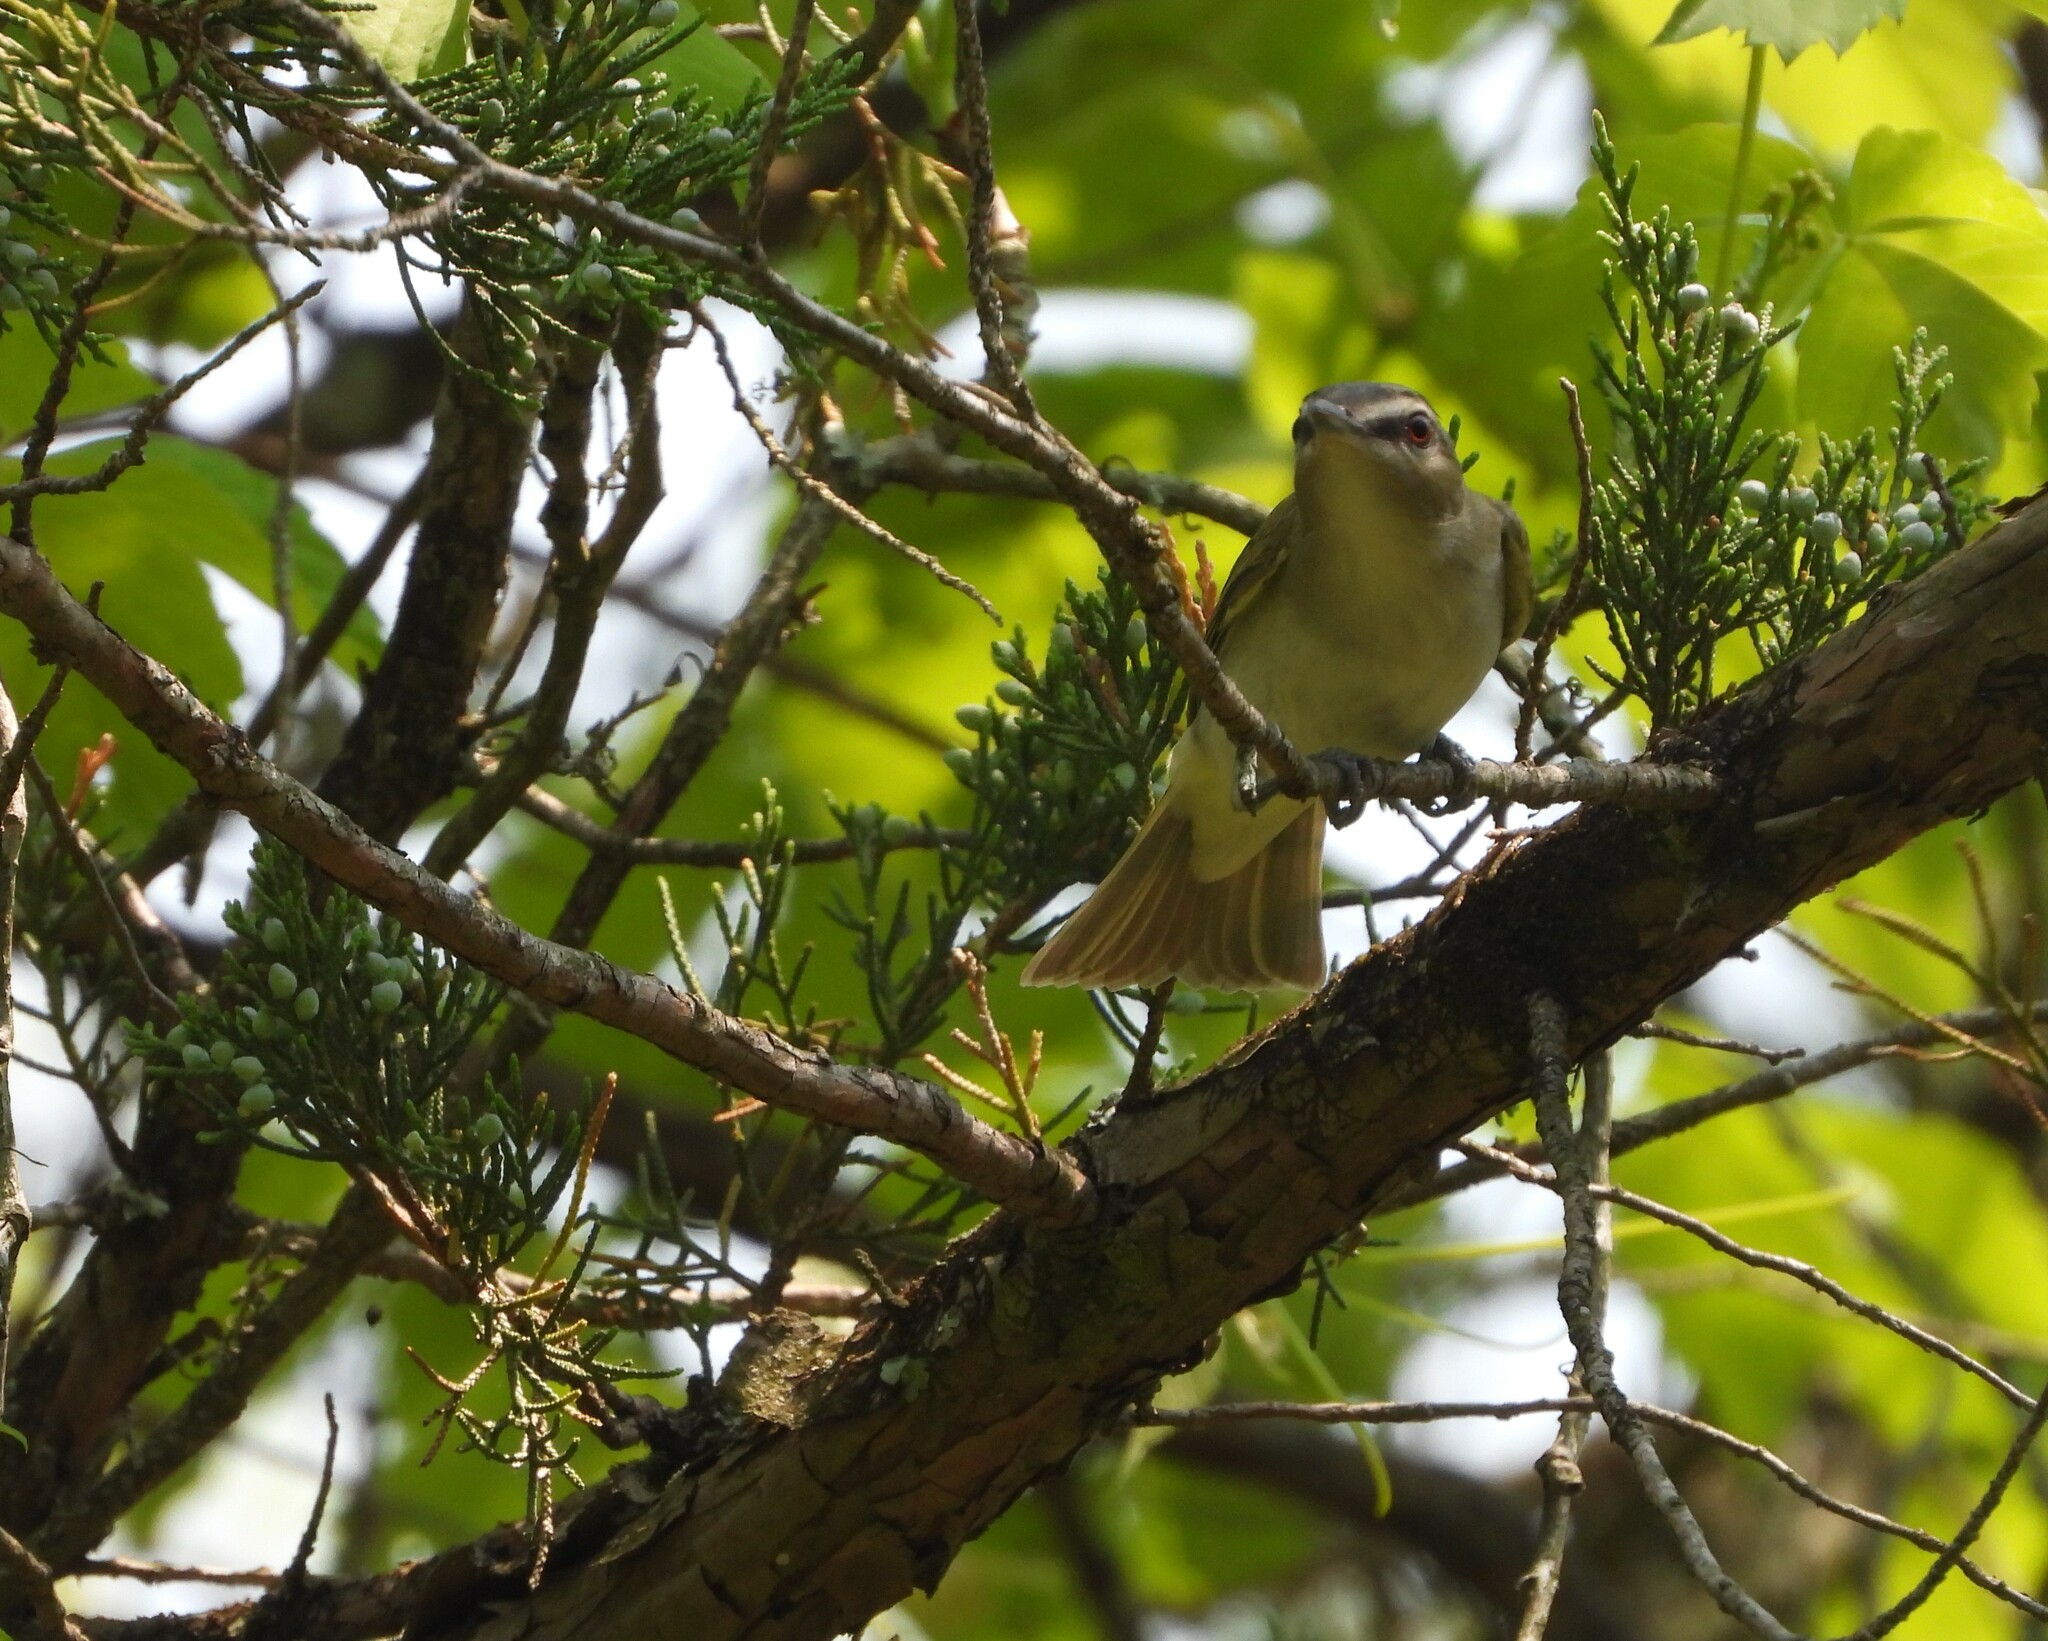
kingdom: Animalia
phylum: Chordata
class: Aves
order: Passeriformes
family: Vireonidae
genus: Vireo
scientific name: Vireo olivaceus
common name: Red-eyed vireo
